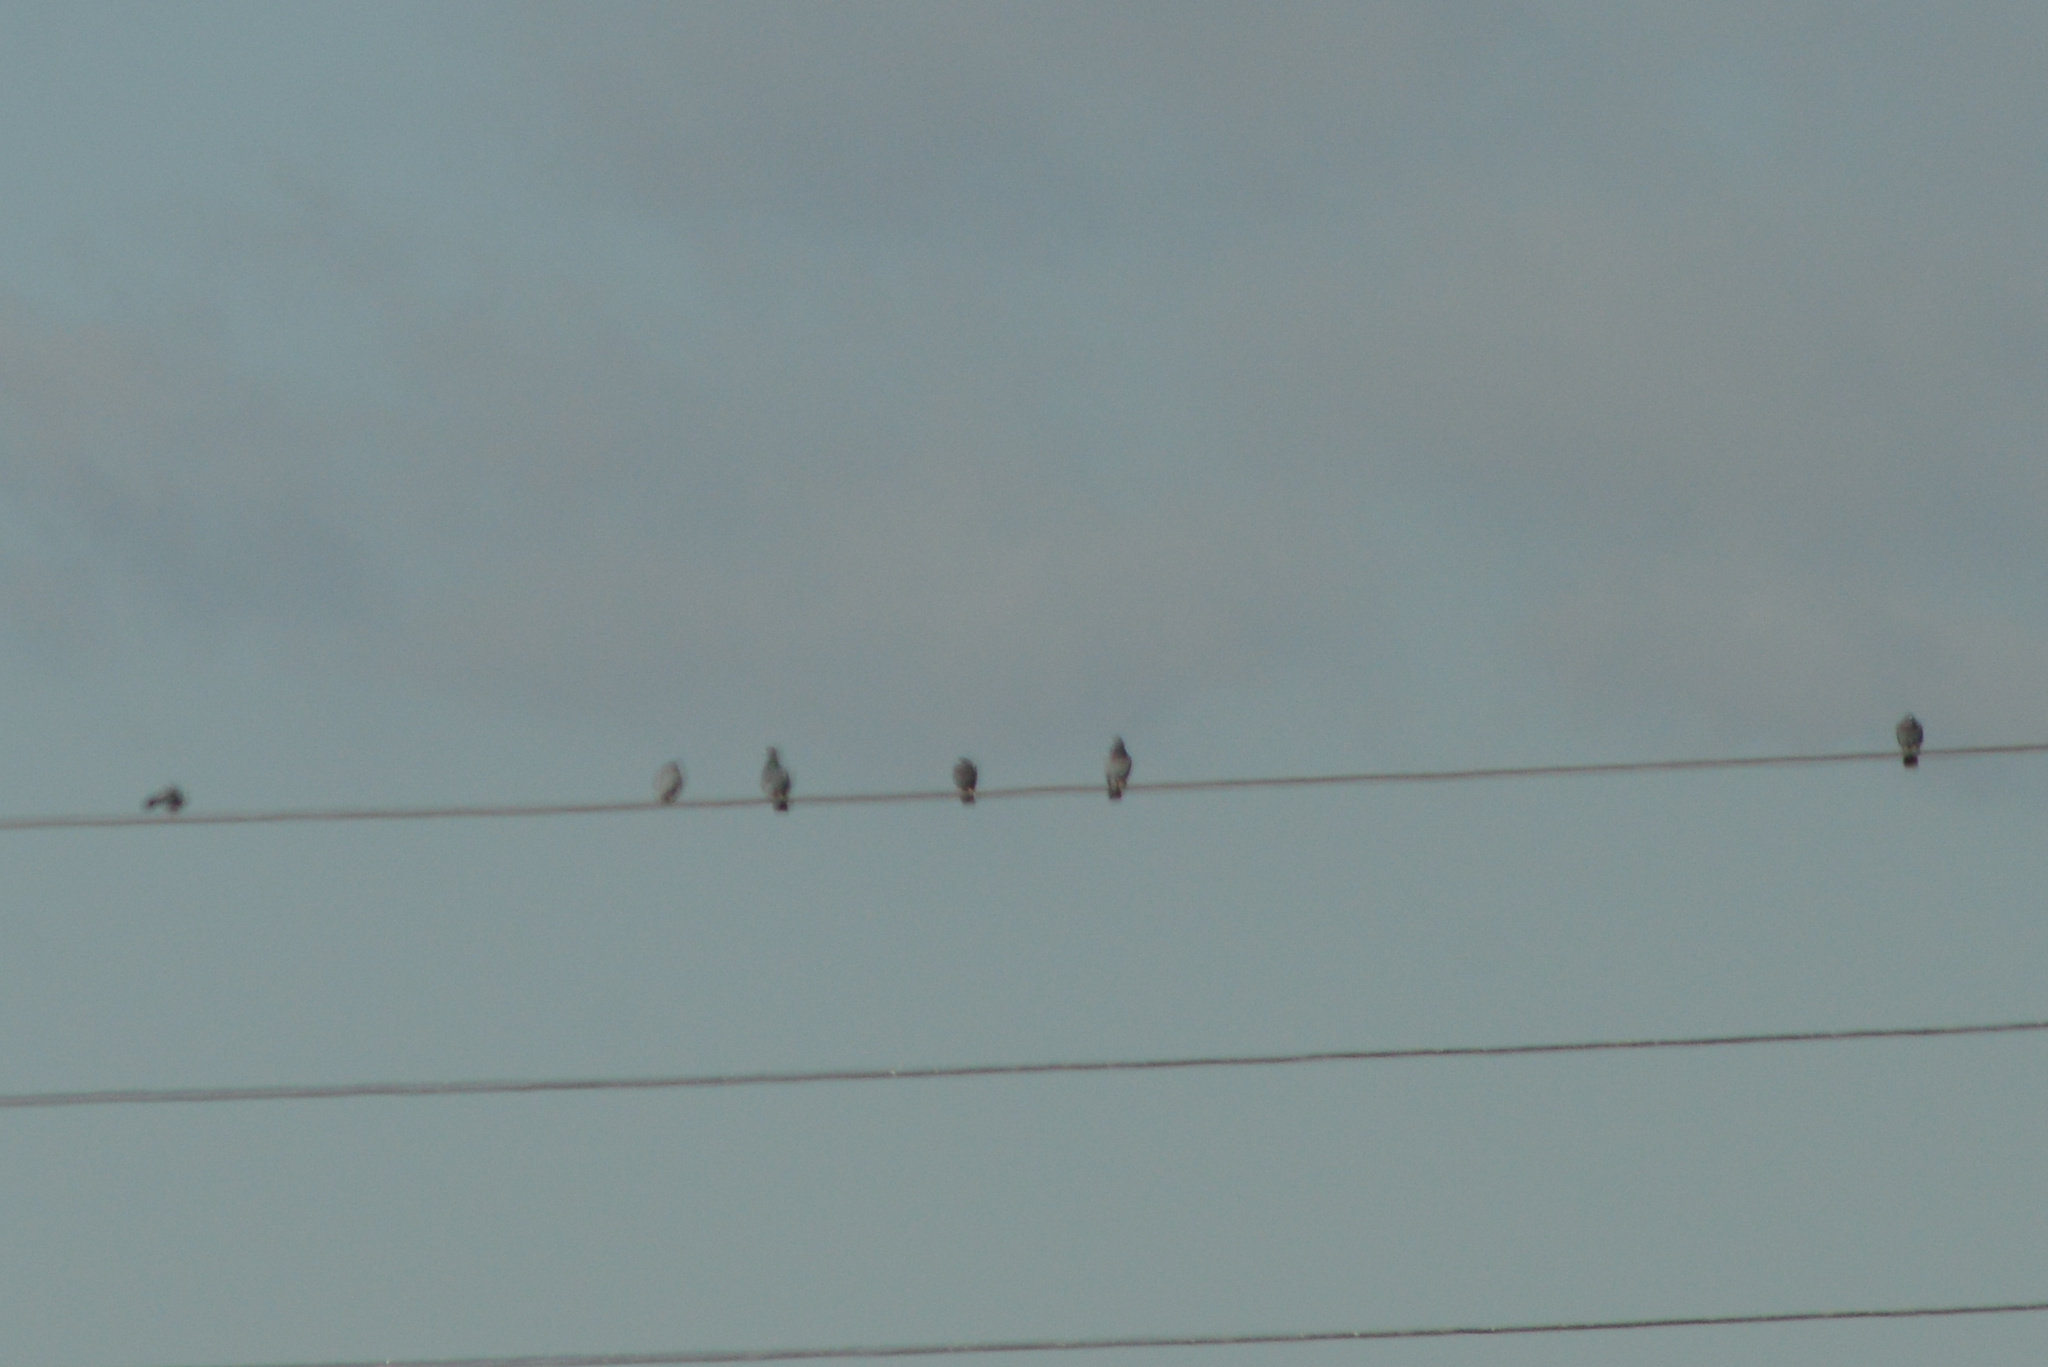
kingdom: Animalia
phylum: Chordata
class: Aves
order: Columbiformes
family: Columbidae
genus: Columba
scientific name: Columba livia
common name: Rock pigeon
